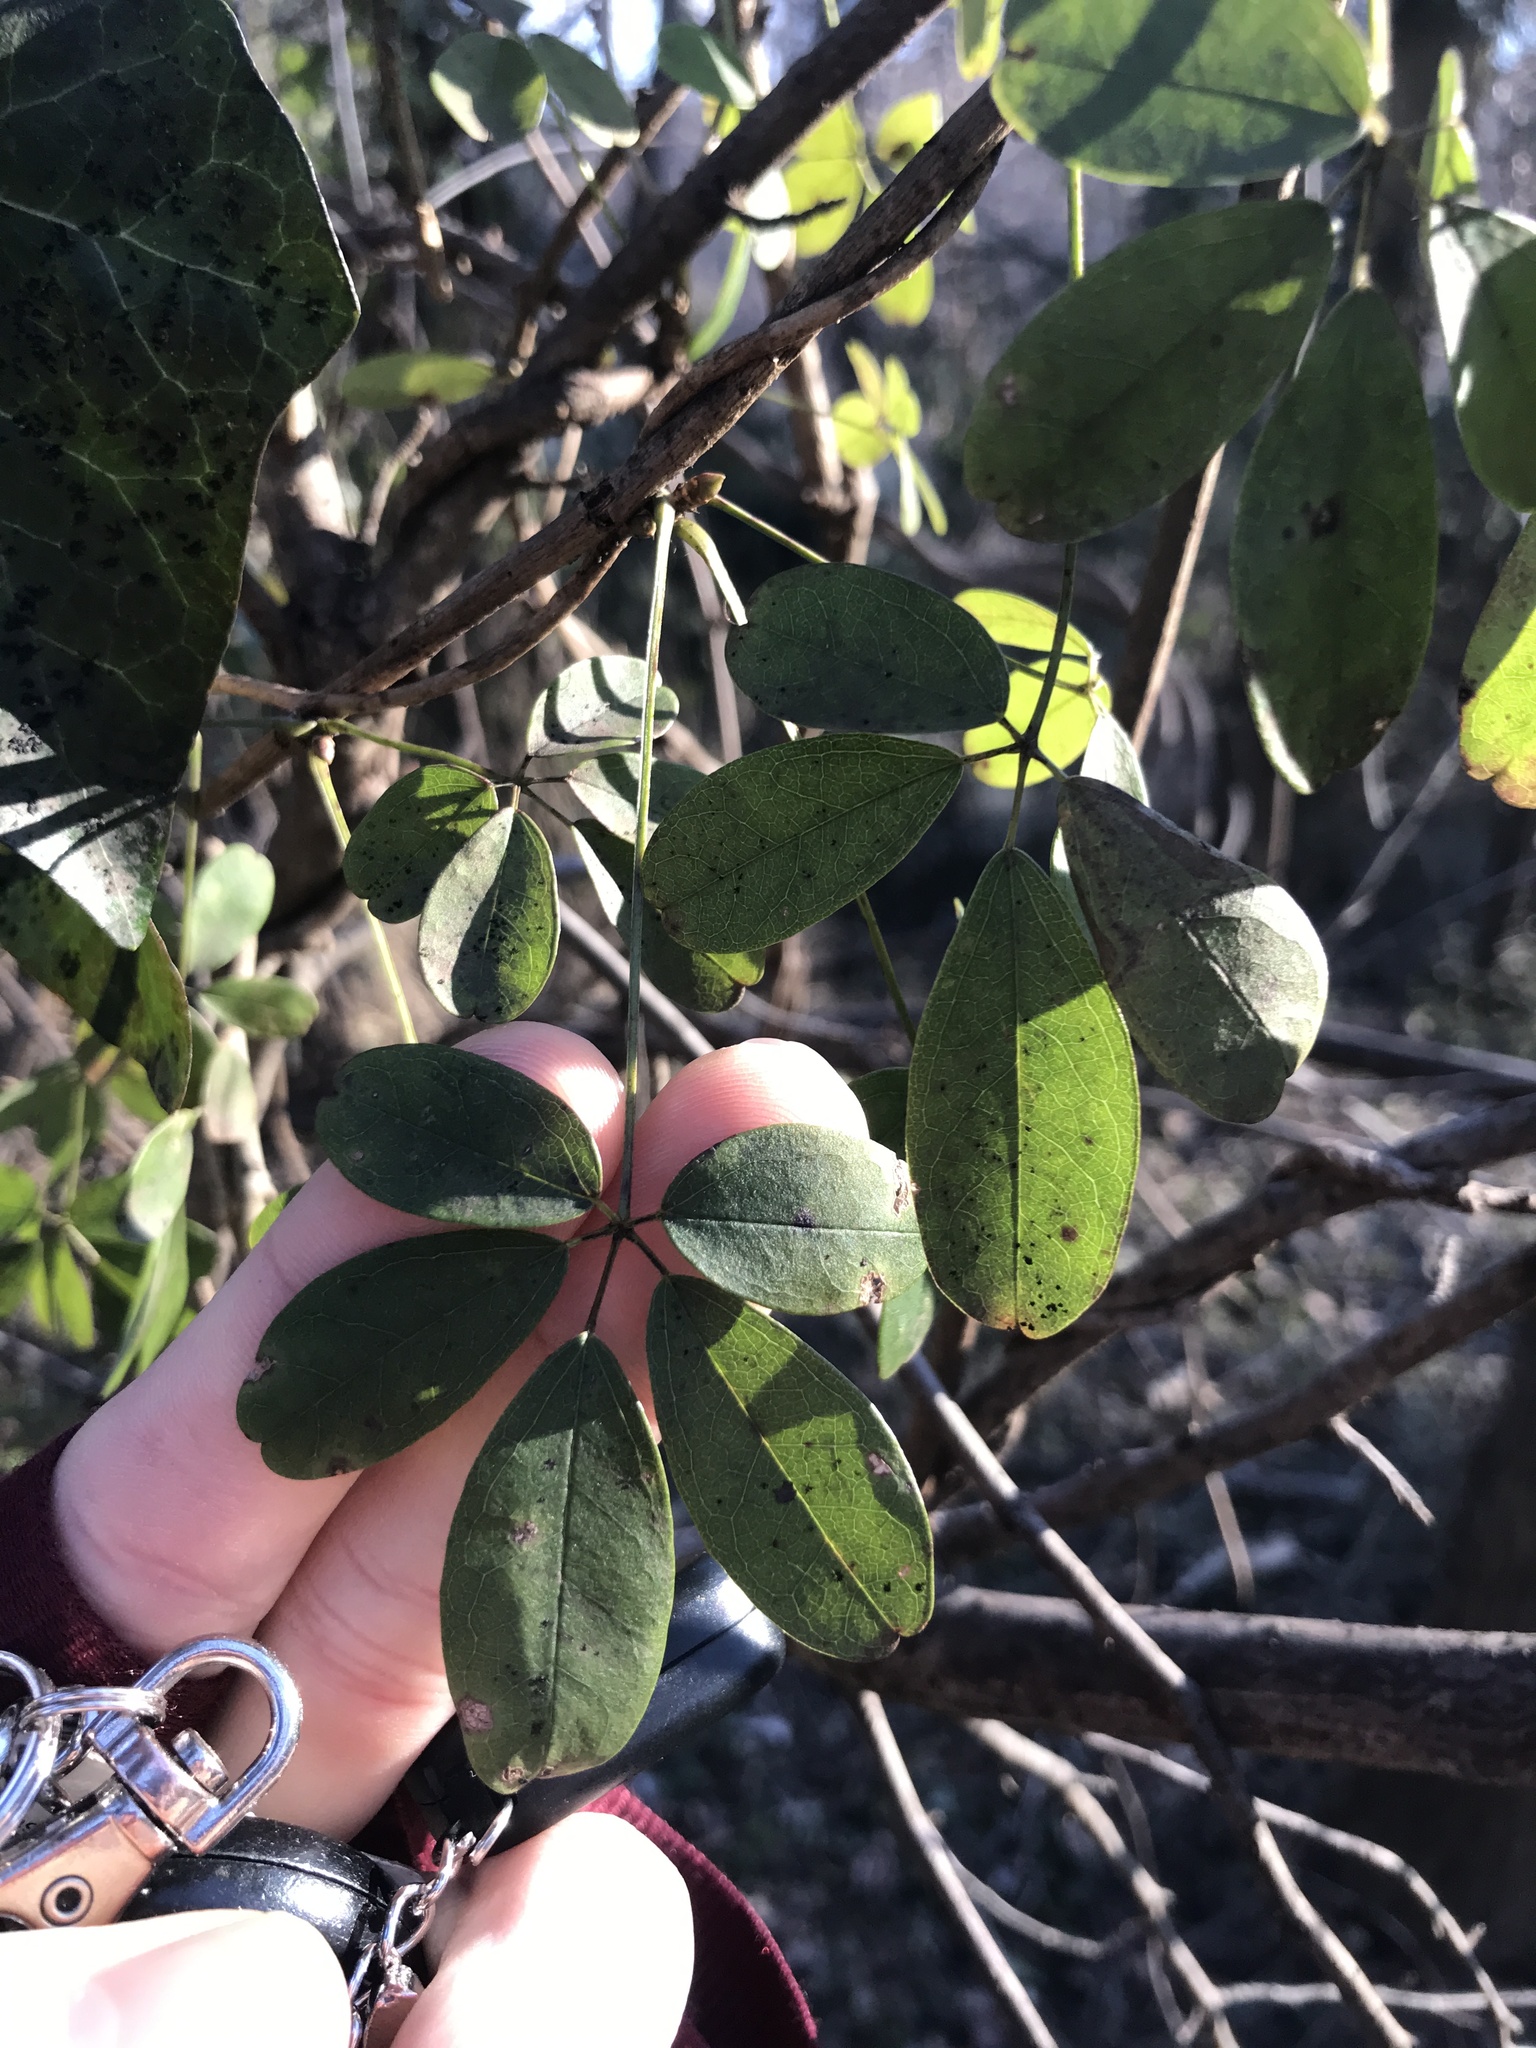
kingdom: Plantae
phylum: Tracheophyta
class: Magnoliopsida
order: Ranunculales
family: Lardizabalaceae
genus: Akebia
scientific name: Akebia quinata
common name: Five-leaf akebia
